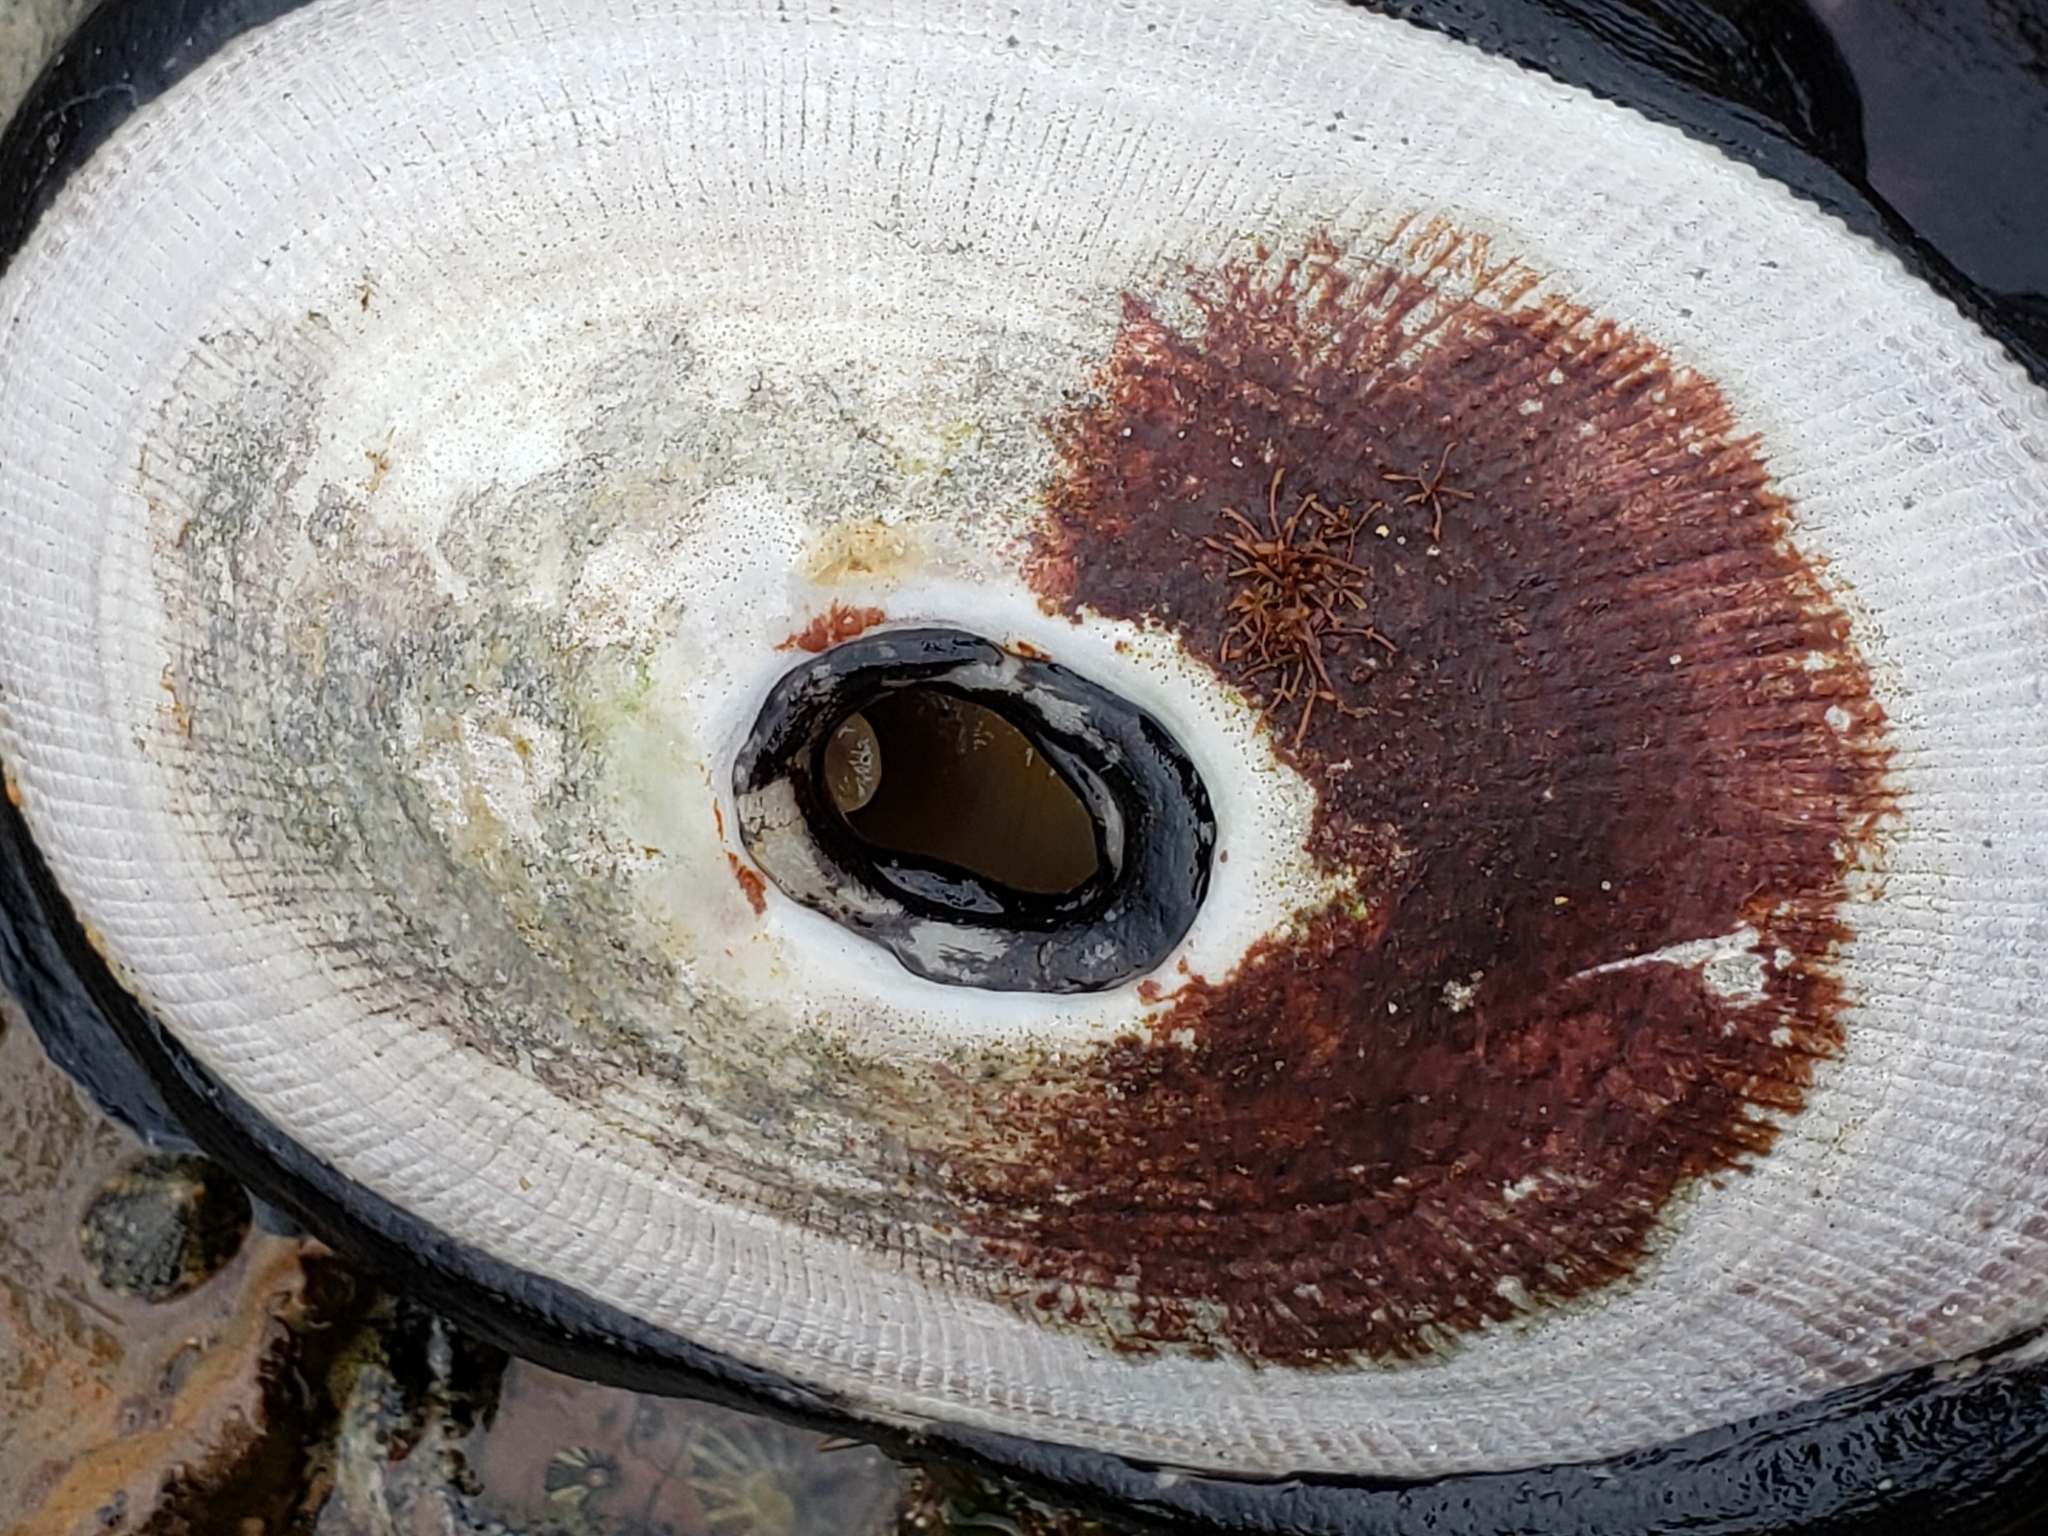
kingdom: Animalia
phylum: Mollusca
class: Gastropoda
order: Lepetellida
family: Fissurellidae
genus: Megathura
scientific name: Megathura crenulata
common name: Giant keyhole limpet
